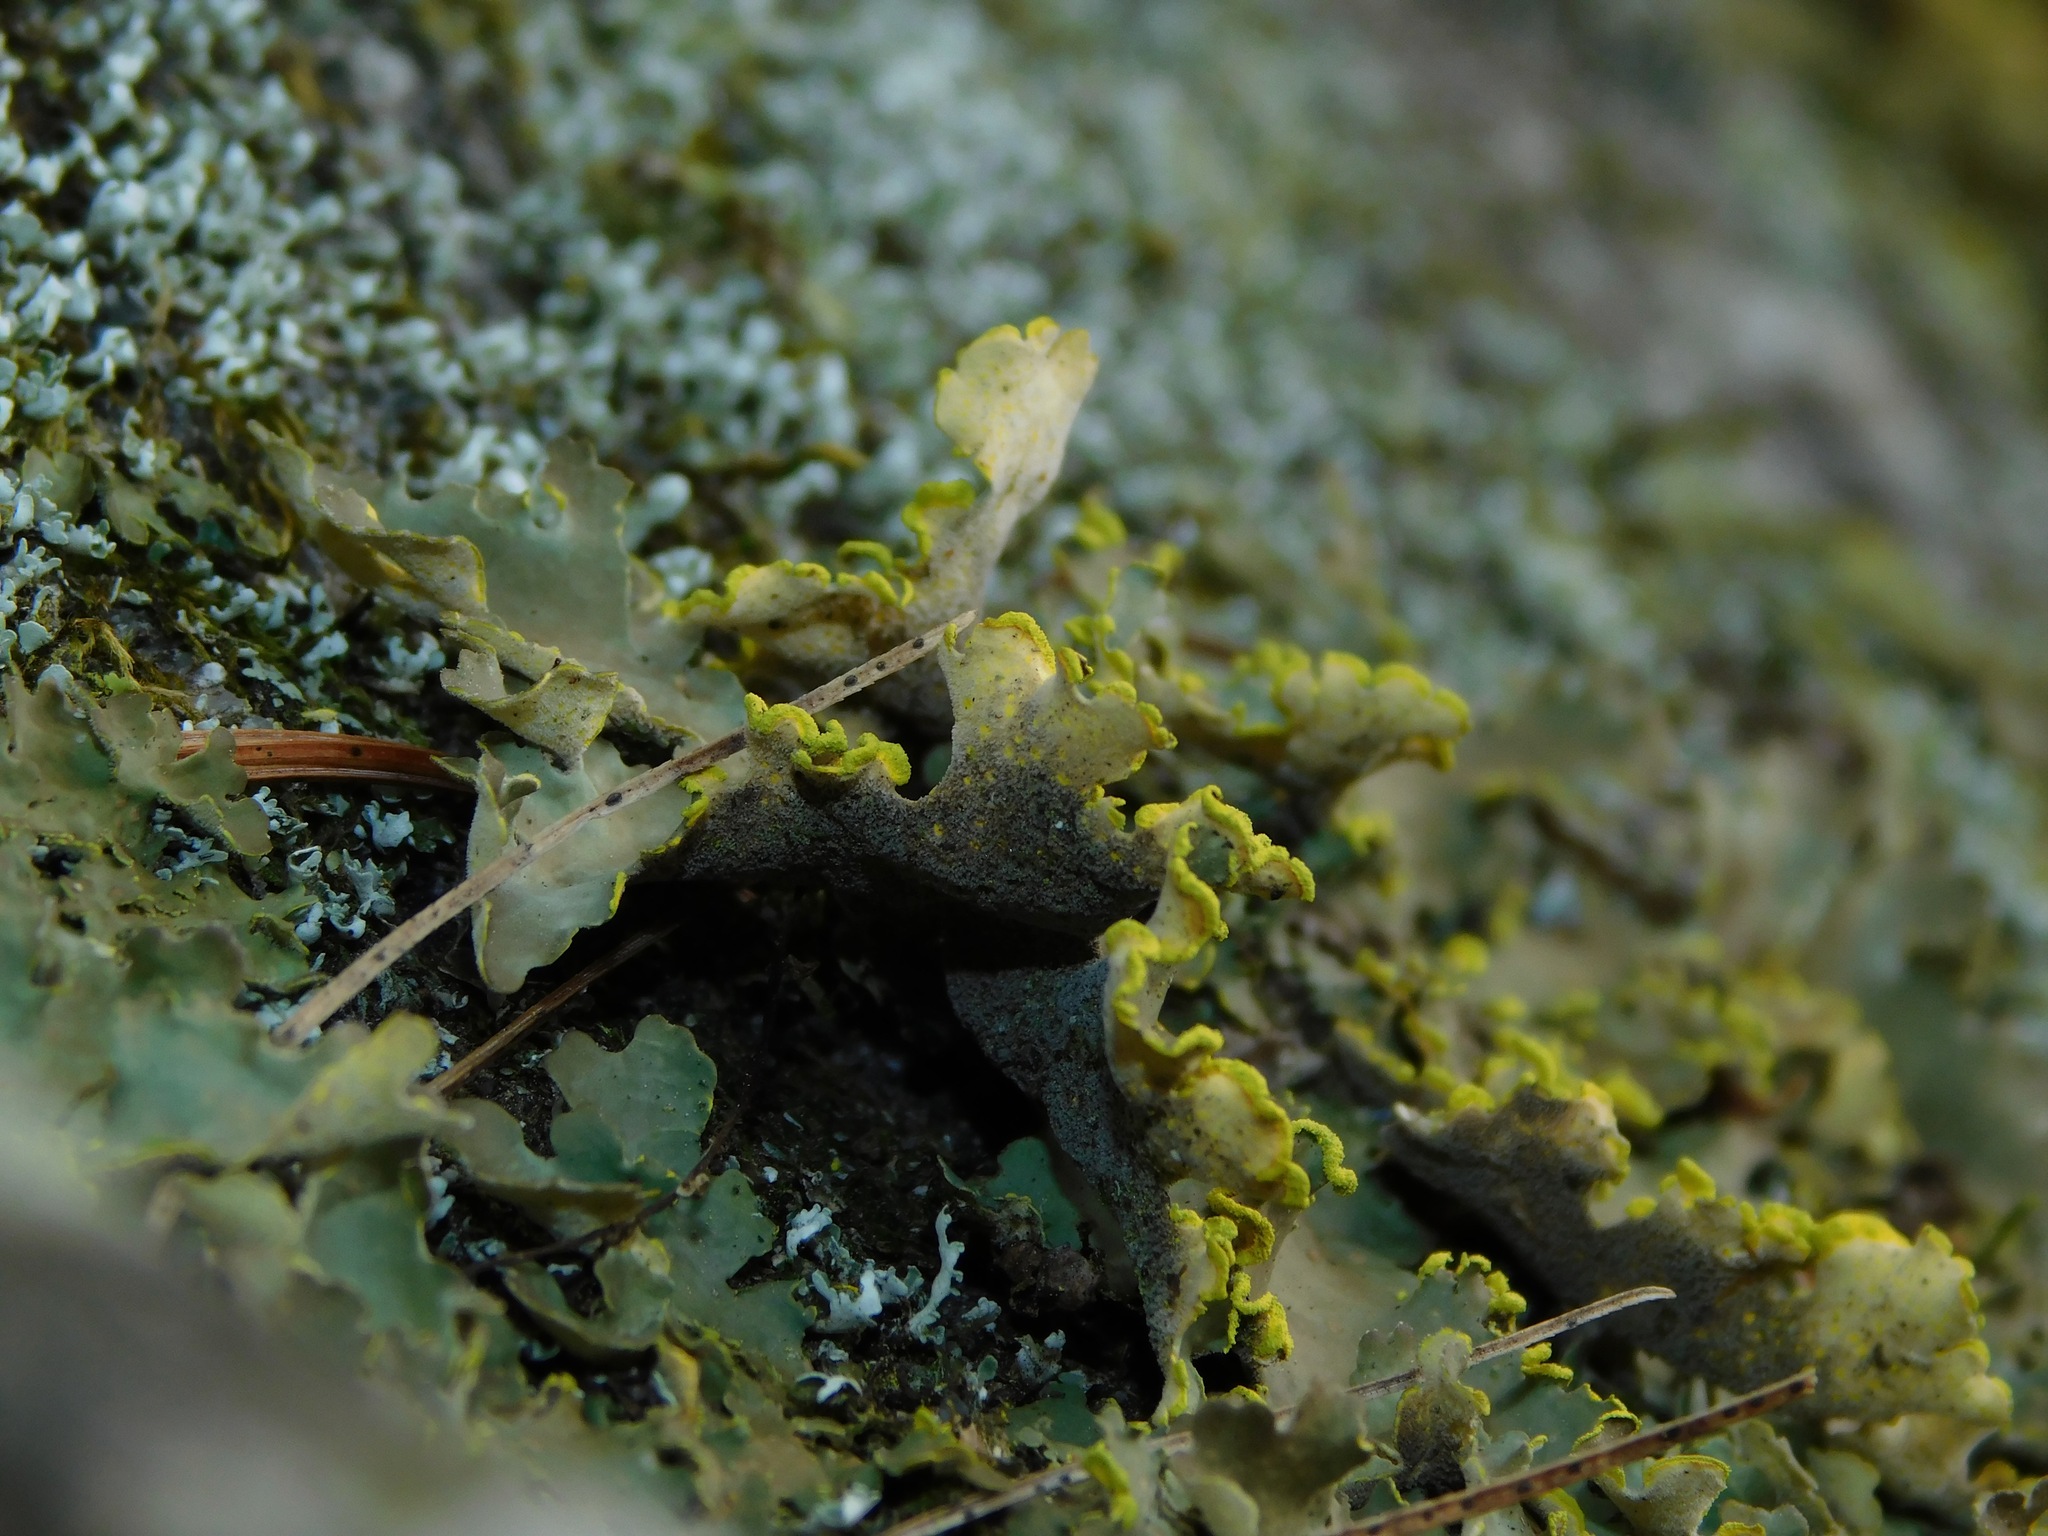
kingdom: Fungi
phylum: Ascomycota
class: Lecanoromycetes
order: Peltigerales
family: Lobariaceae
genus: Pseudocyphellaria
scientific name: Pseudocyphellaria aurata
